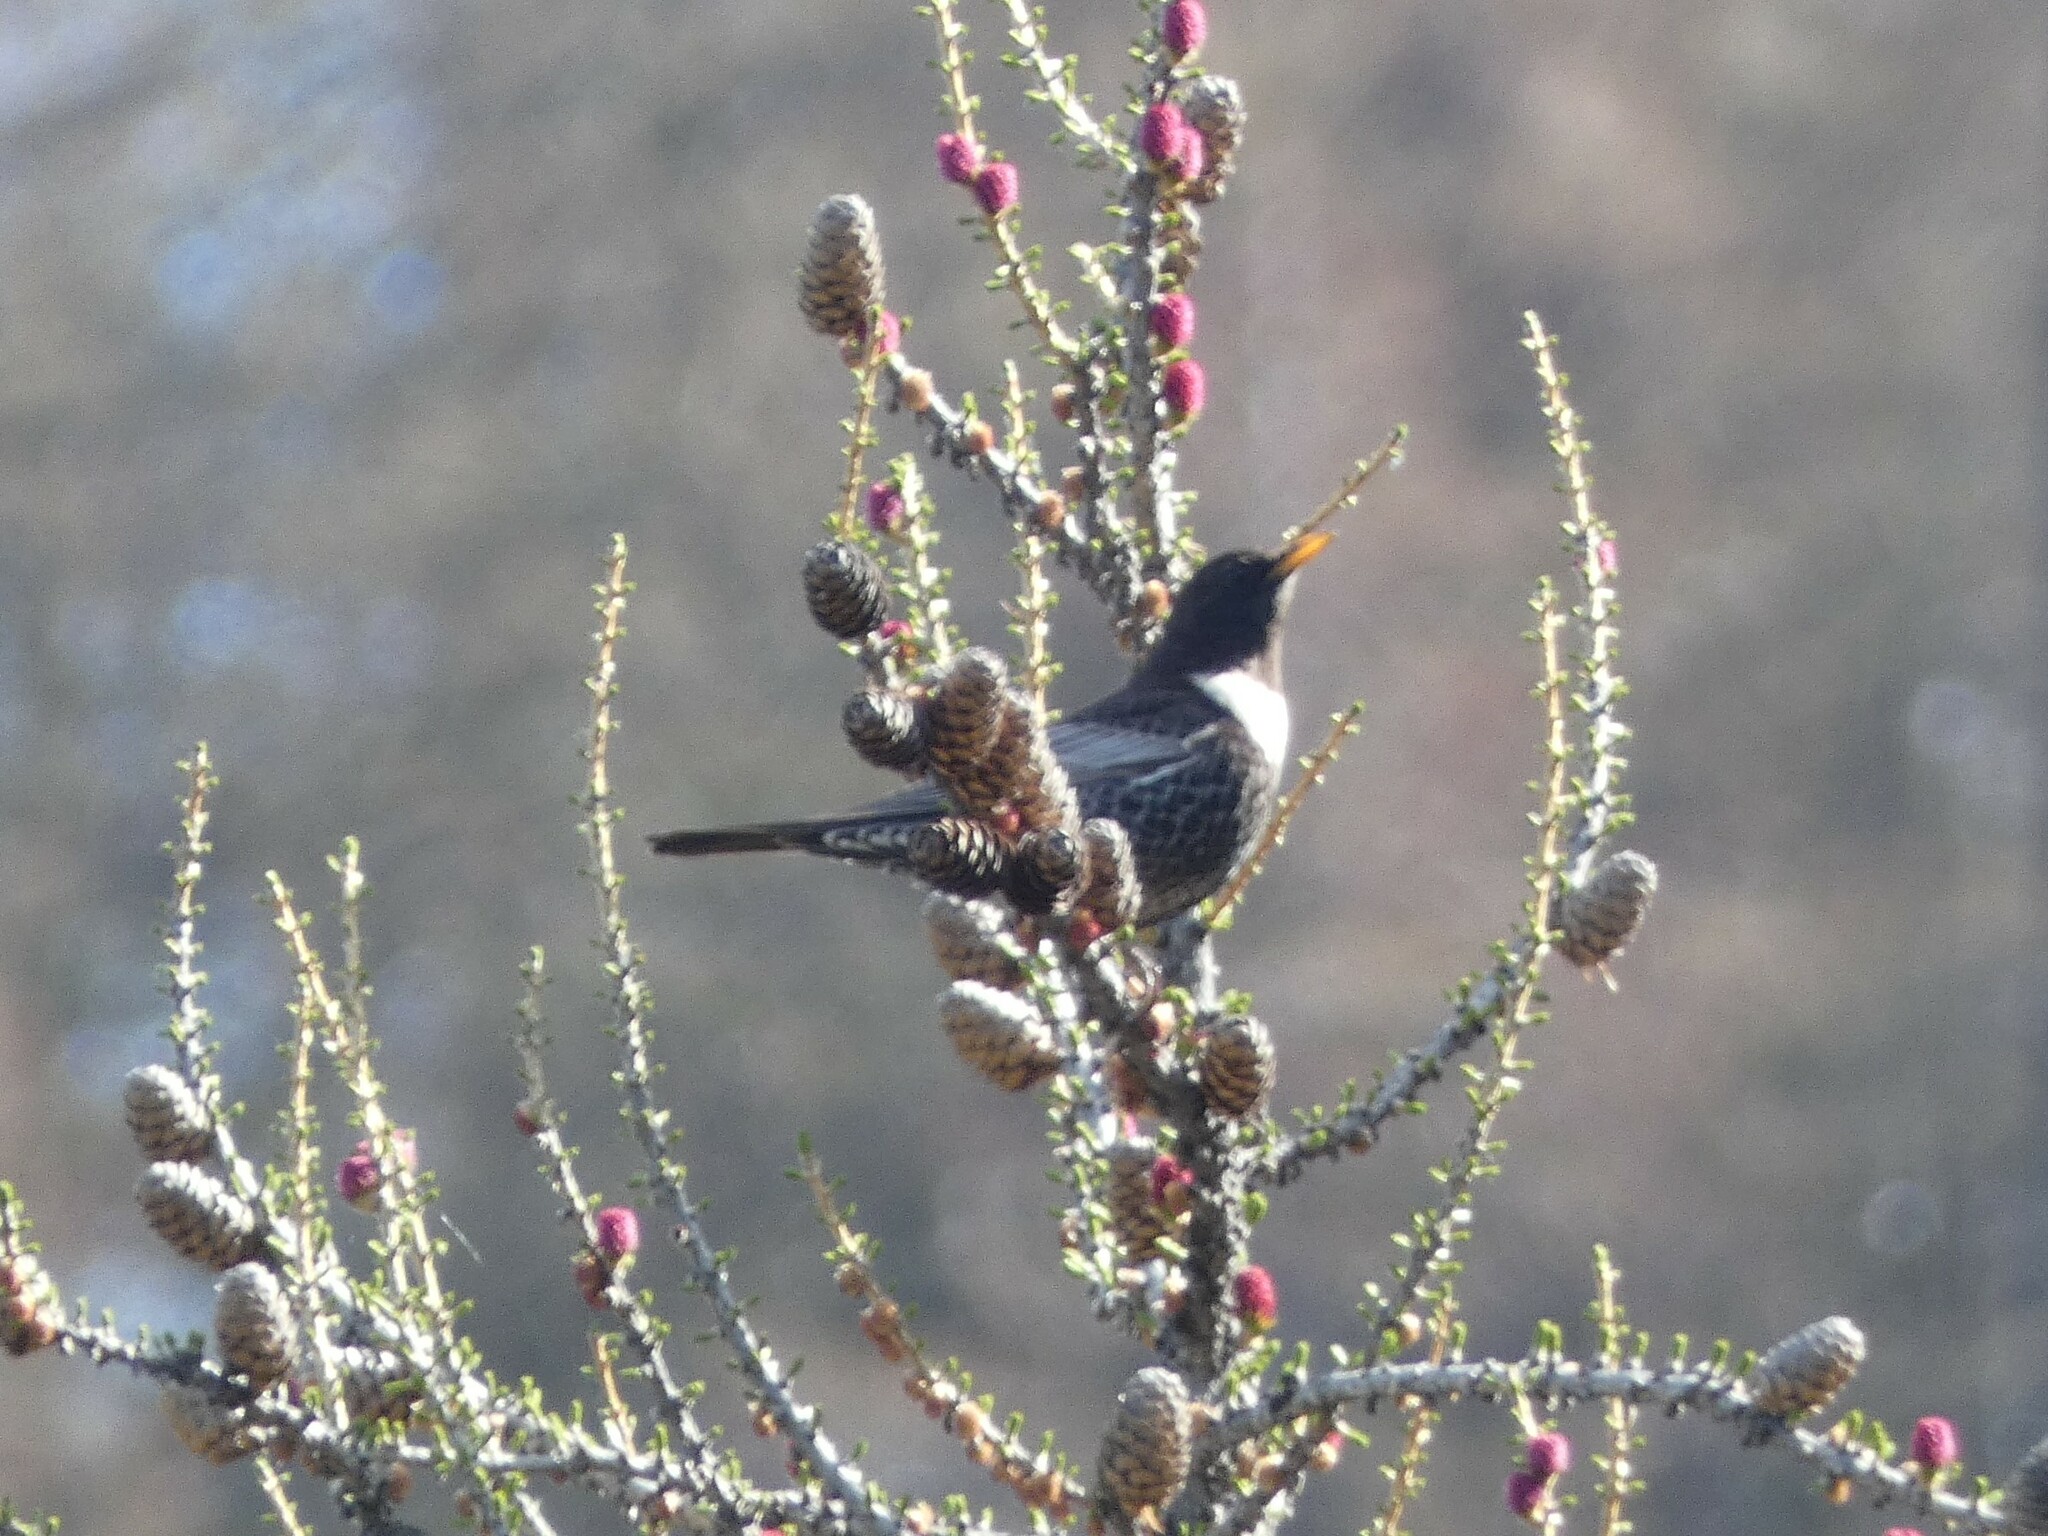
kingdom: Animalia
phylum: Chordata
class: Aves
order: Passeriformes
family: Turdidae
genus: Turdus
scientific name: Turdus torquatus
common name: Ring ouzel
